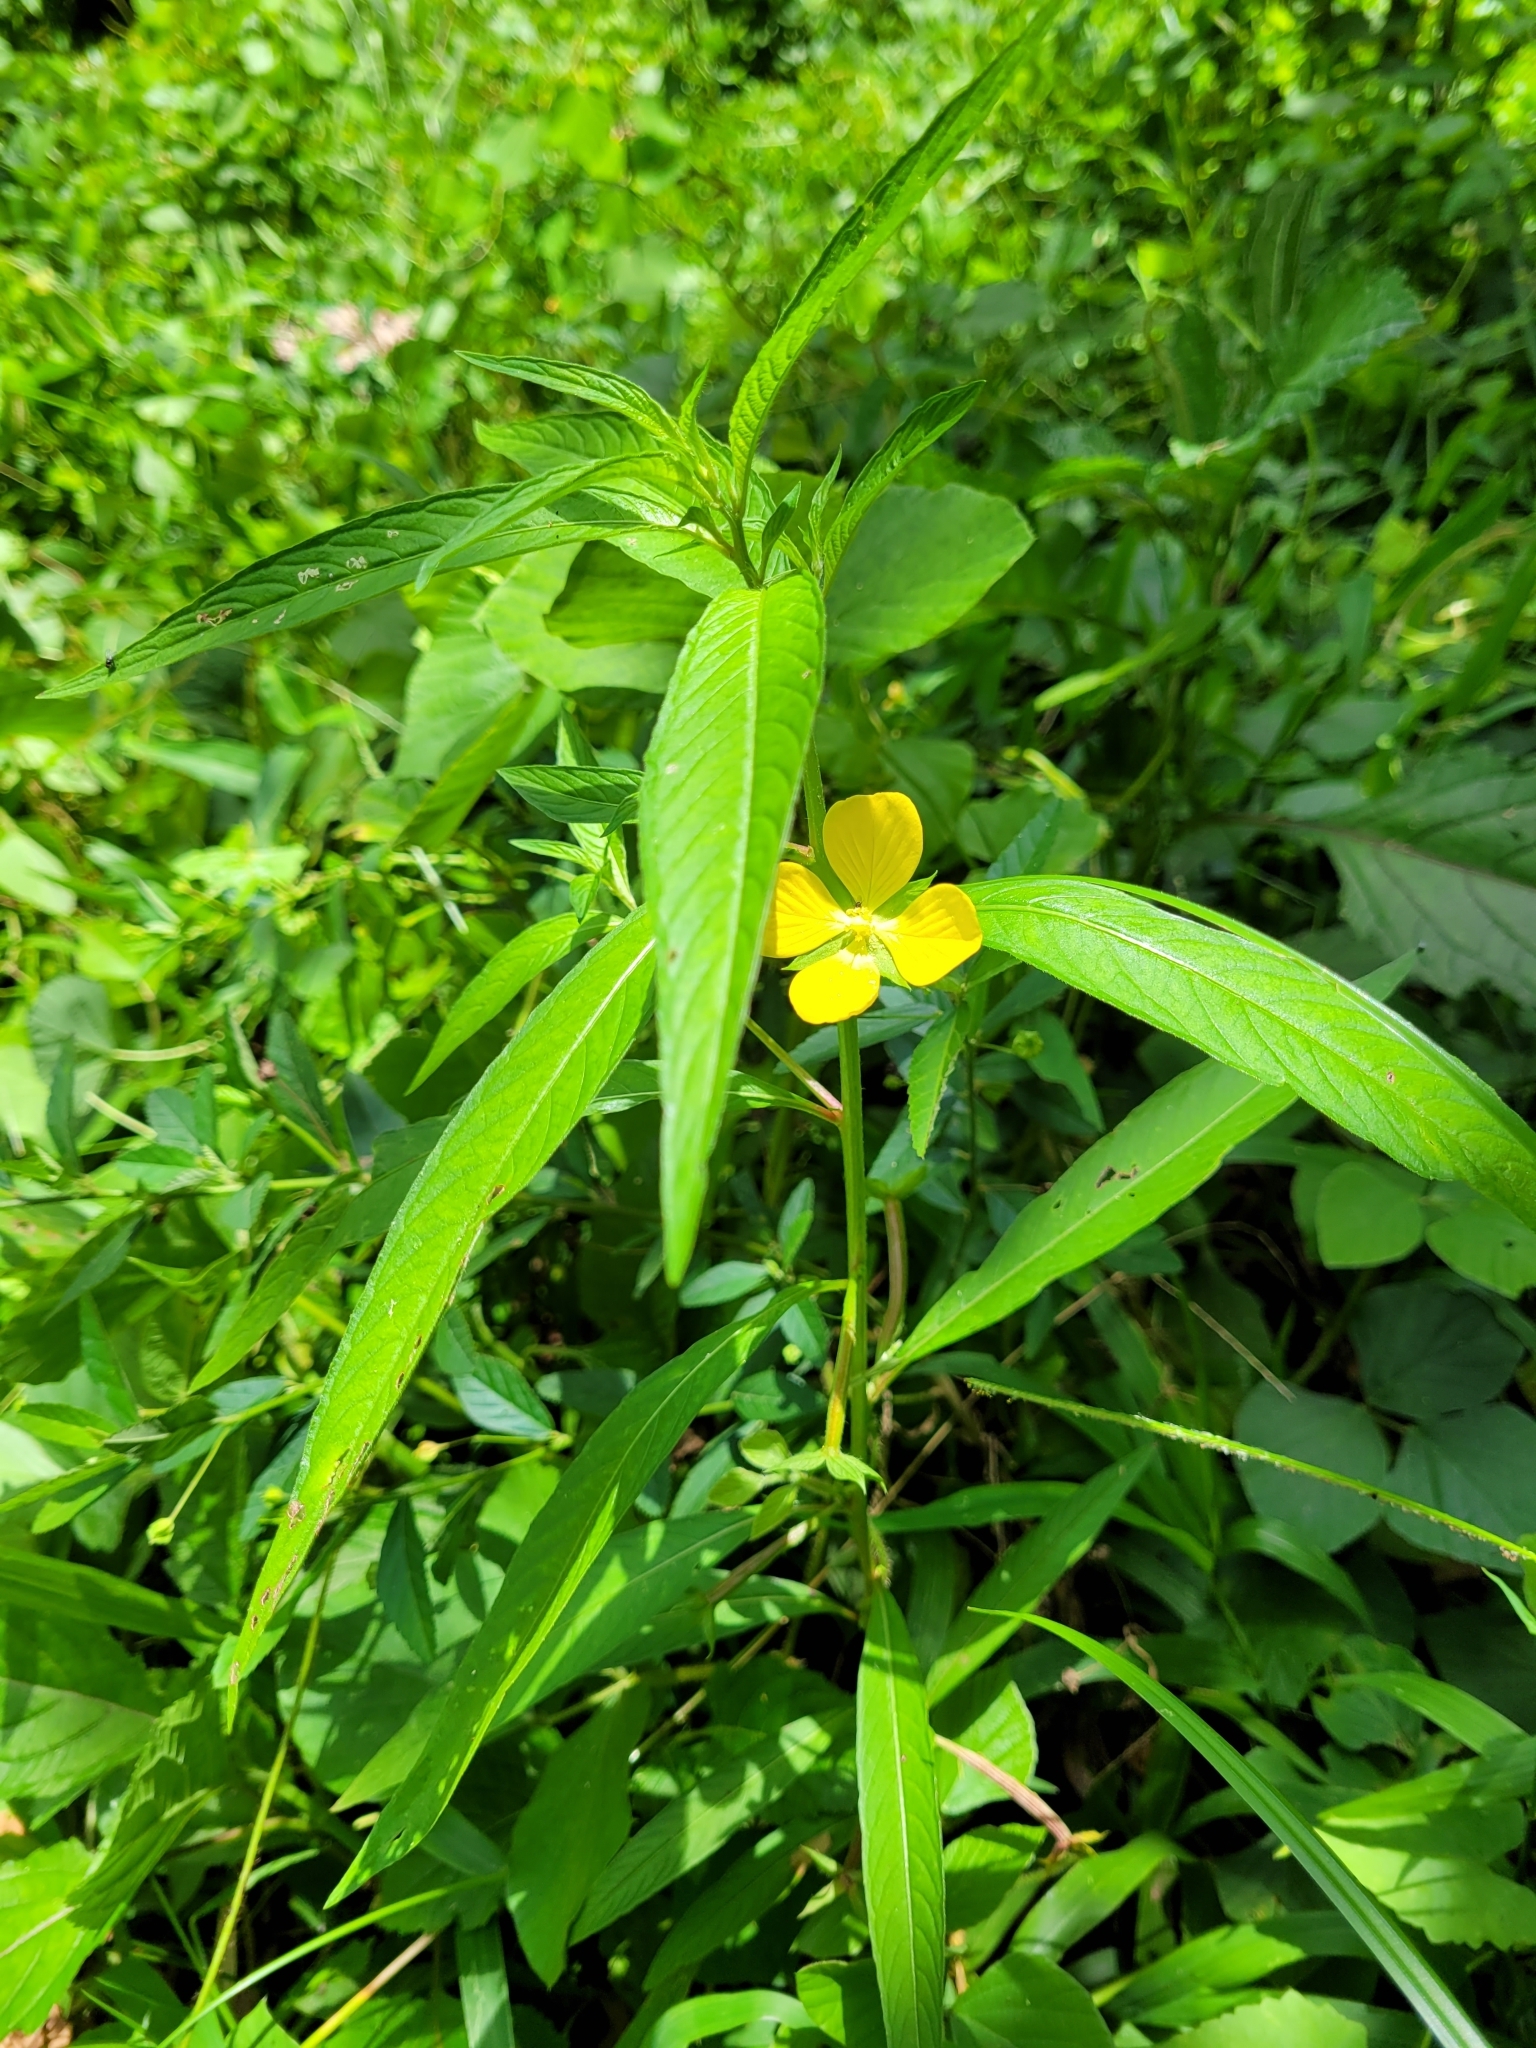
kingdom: Plantae
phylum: Tracheophyta
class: Magnoliopsida
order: Myrtales
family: Onagraceae
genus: Ludwigia
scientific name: Ludwigia octovalvis
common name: Water-primrose
